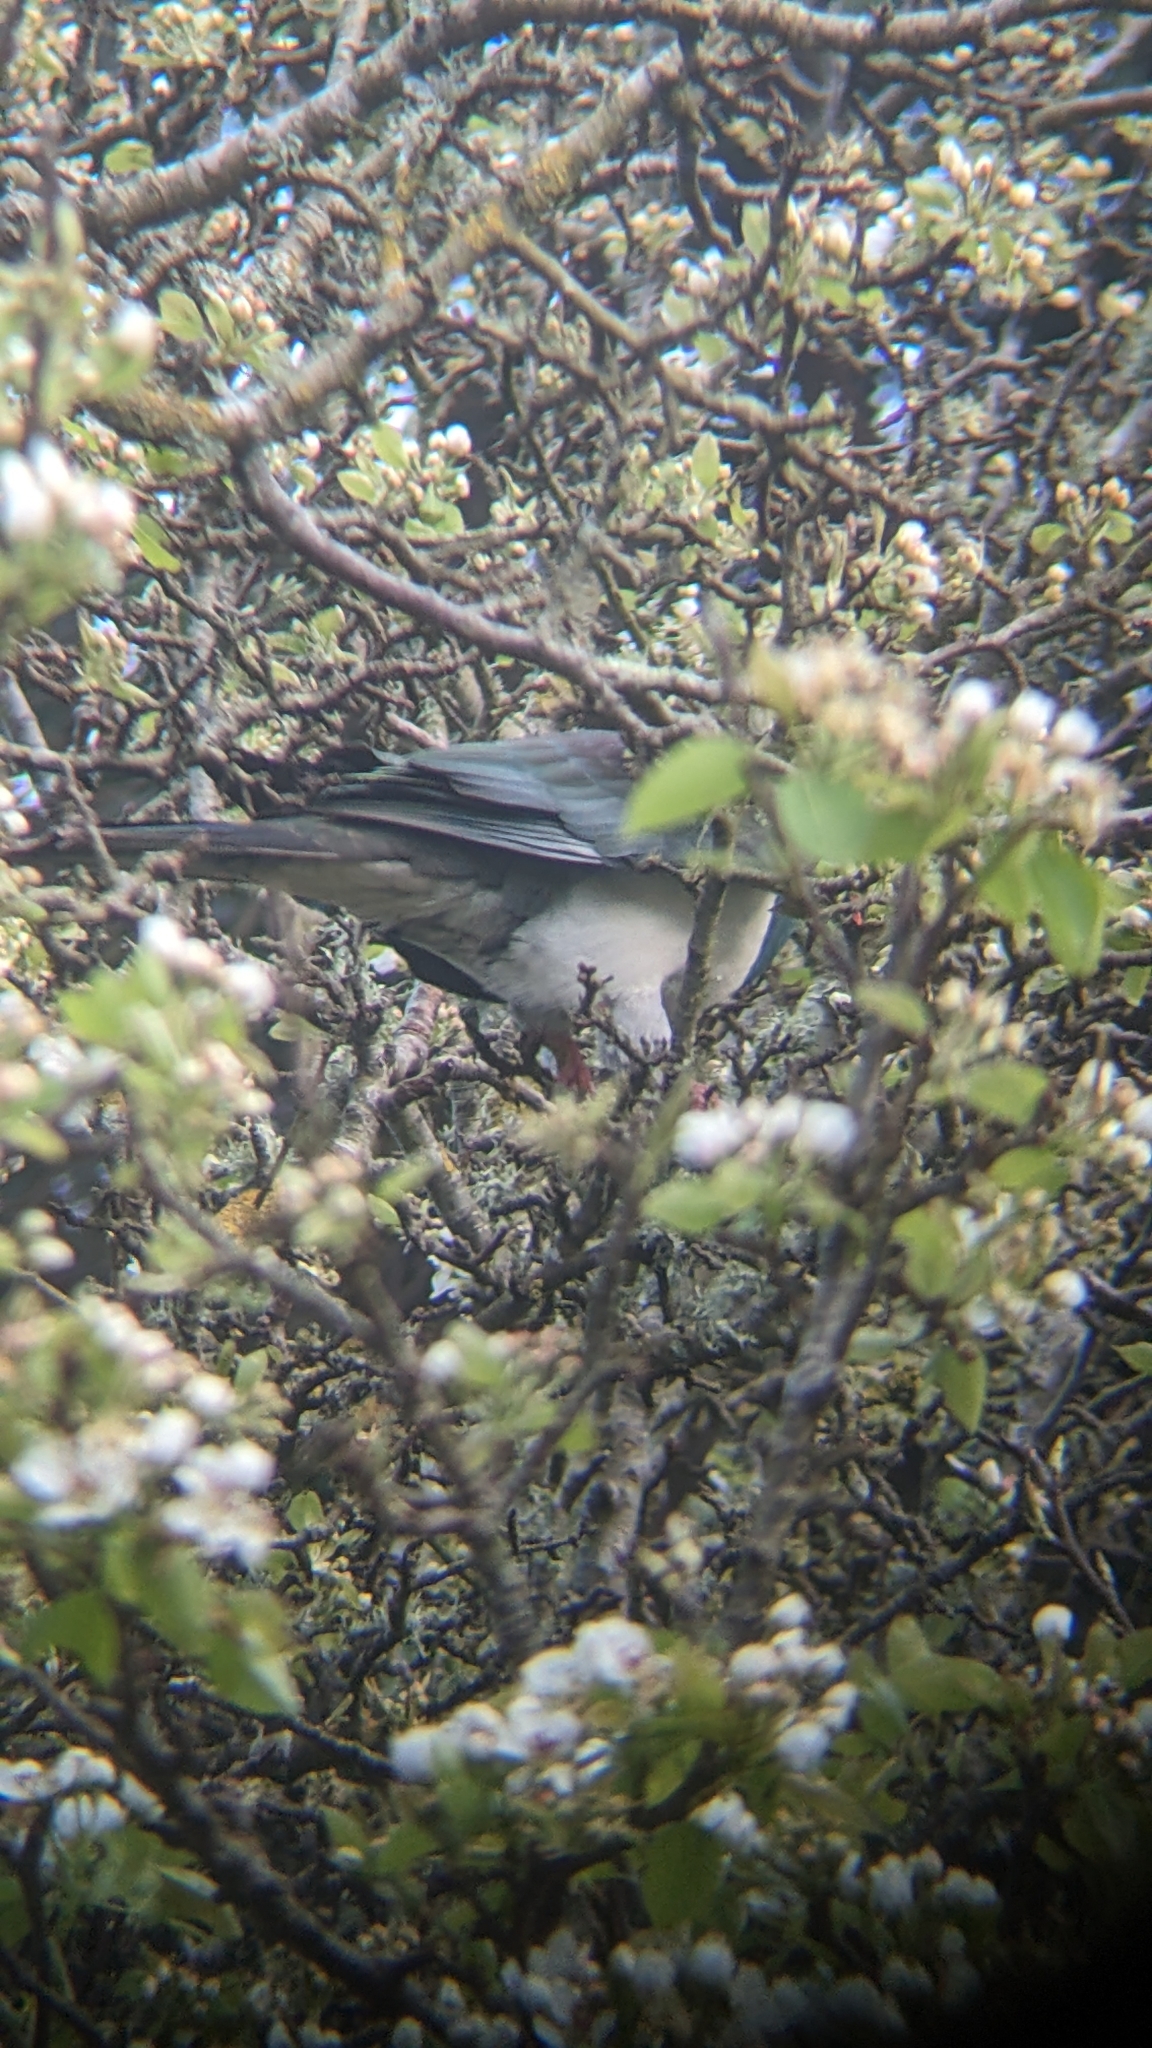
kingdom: Animalia
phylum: Chordata
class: Aves
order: Columbiformes
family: Columbidae
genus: Hemiphaga
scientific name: Hemiphaga novaeseelandiae
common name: New zealand pigeon
